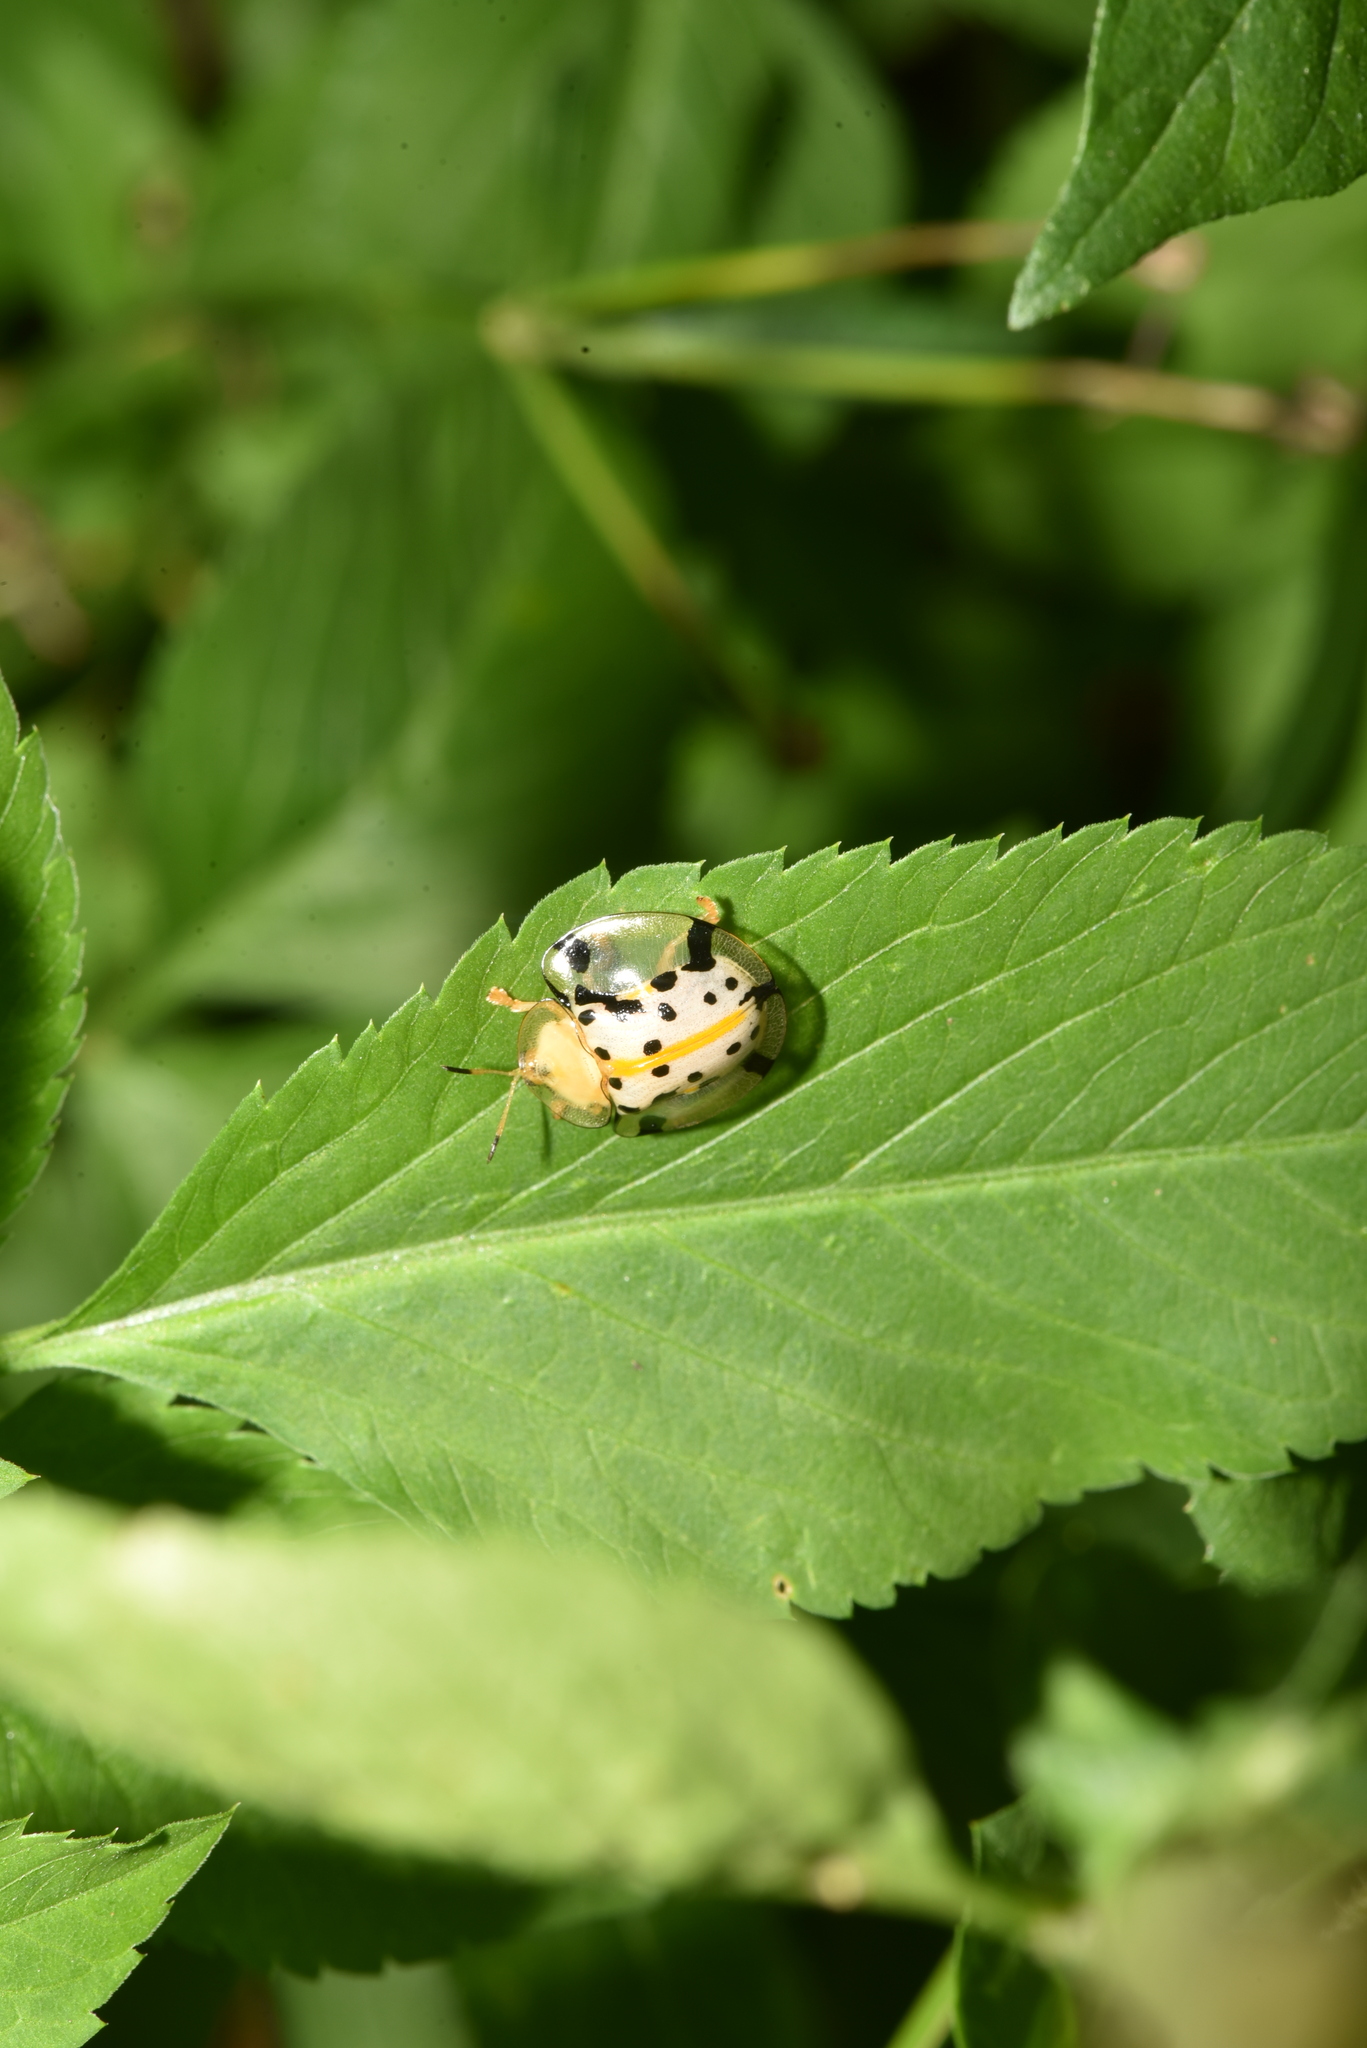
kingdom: Animalia
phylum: Arthropoda
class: Insecta
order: Coleoptera
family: Chrysomelidae
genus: Aspidimorpha
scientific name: Aspidimorpha miliaris
